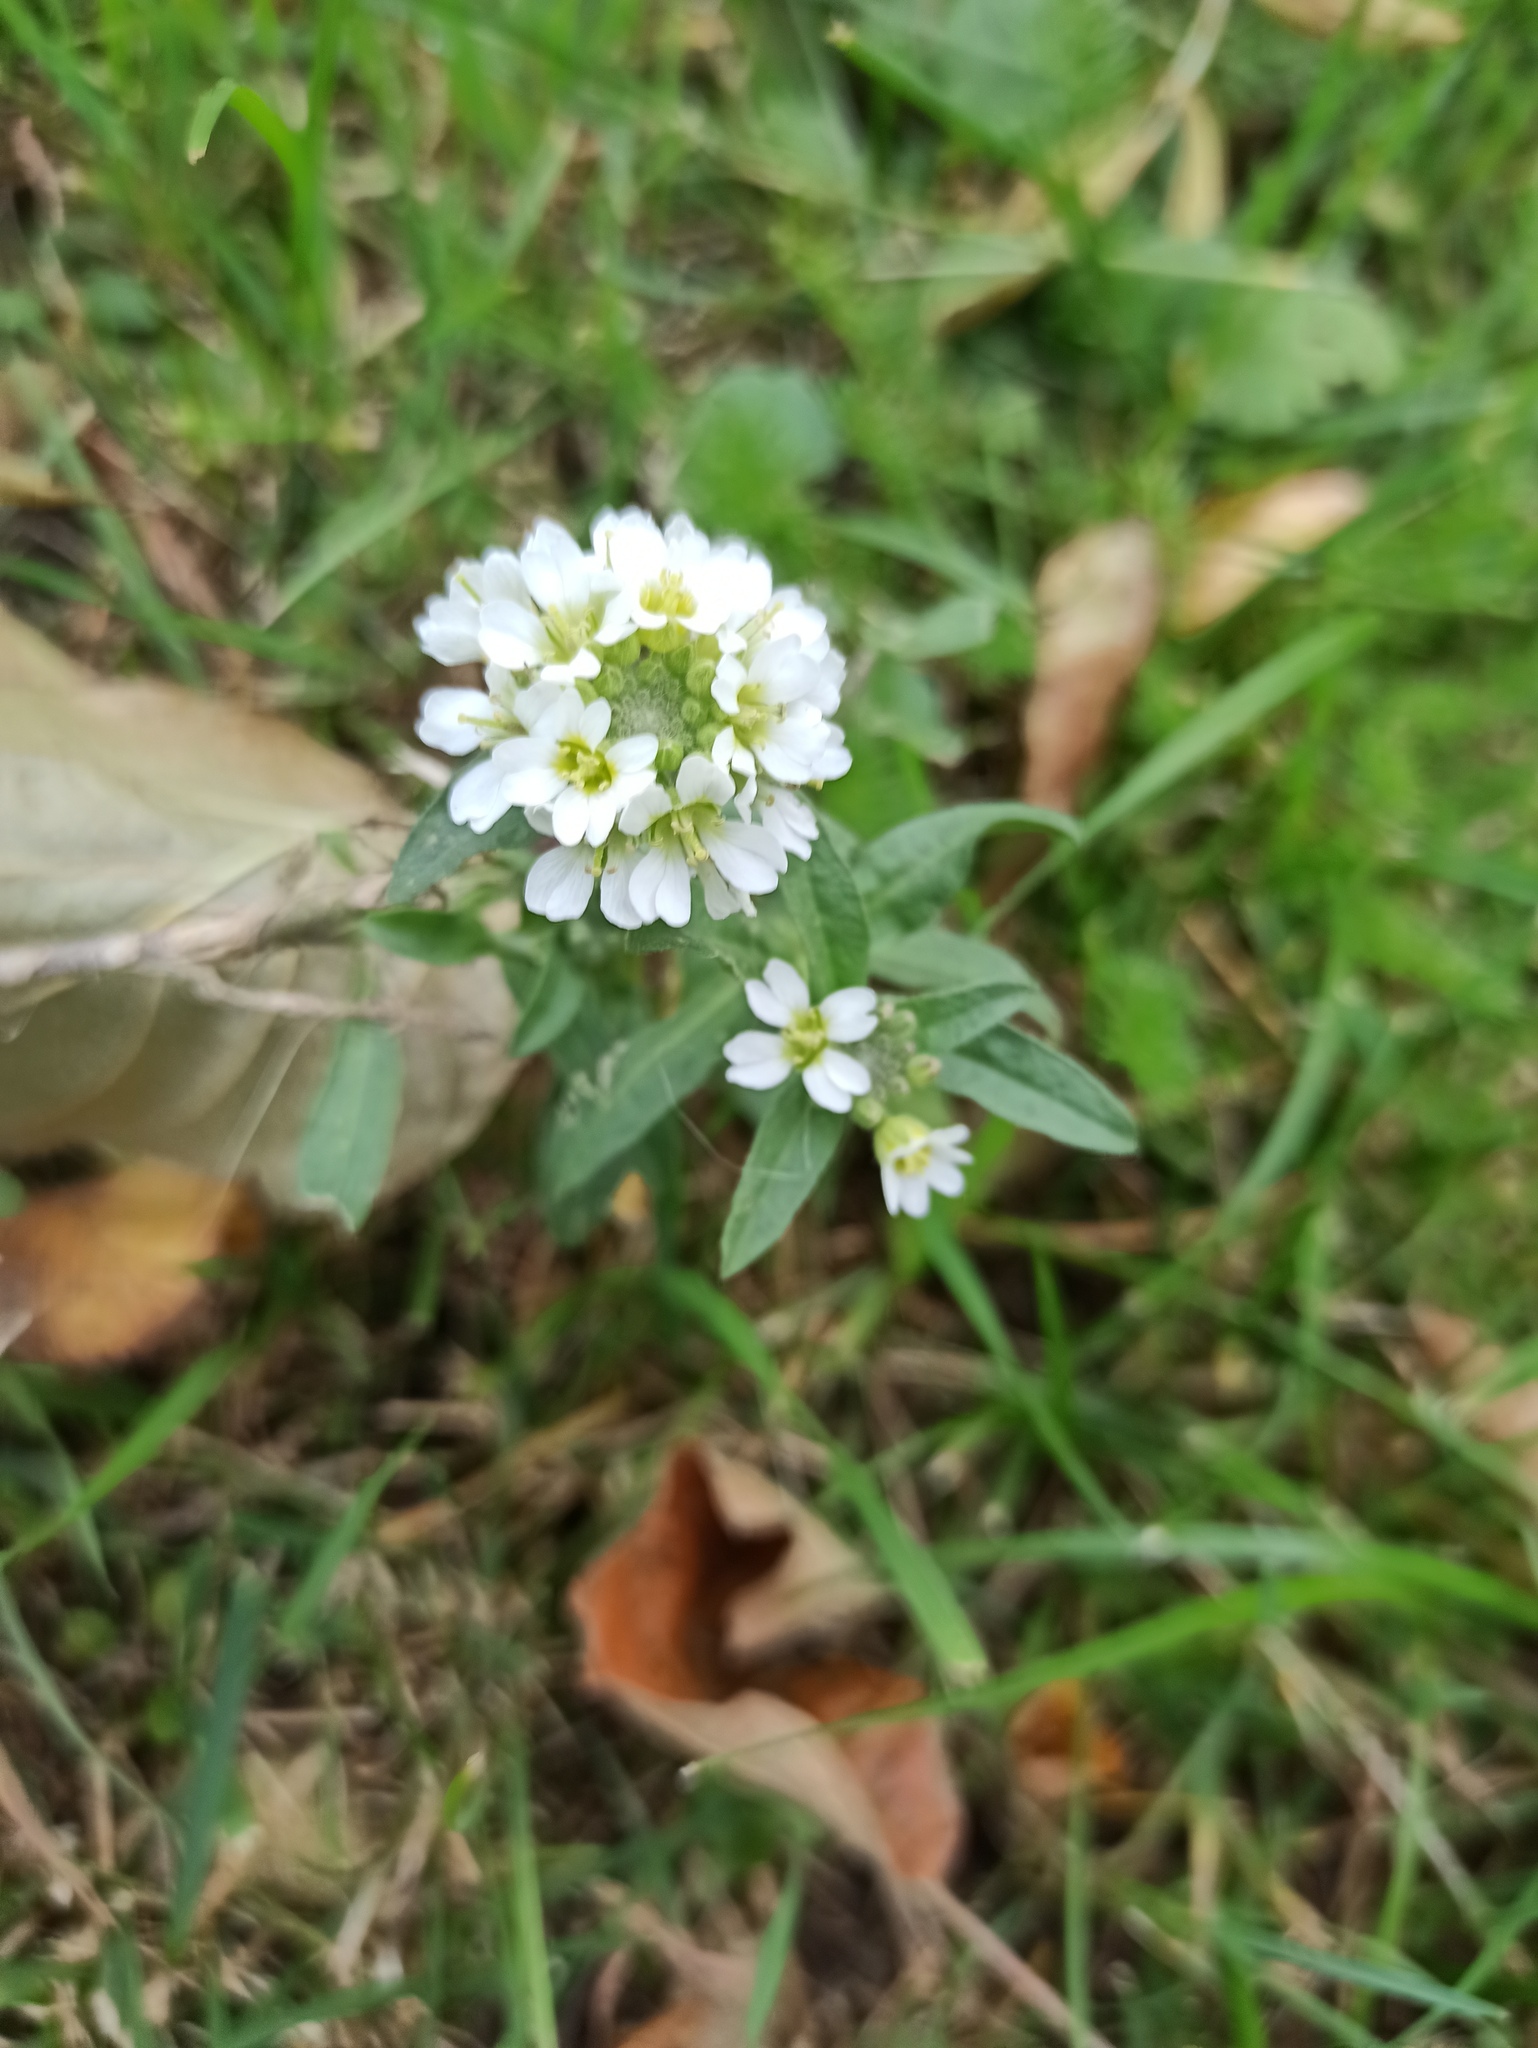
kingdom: Plantae
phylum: Tracheophyta
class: Magnoliopsida
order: Brassicales
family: Brassicaceae
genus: Berteroa
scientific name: Berteroa incana
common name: Hoary alison
